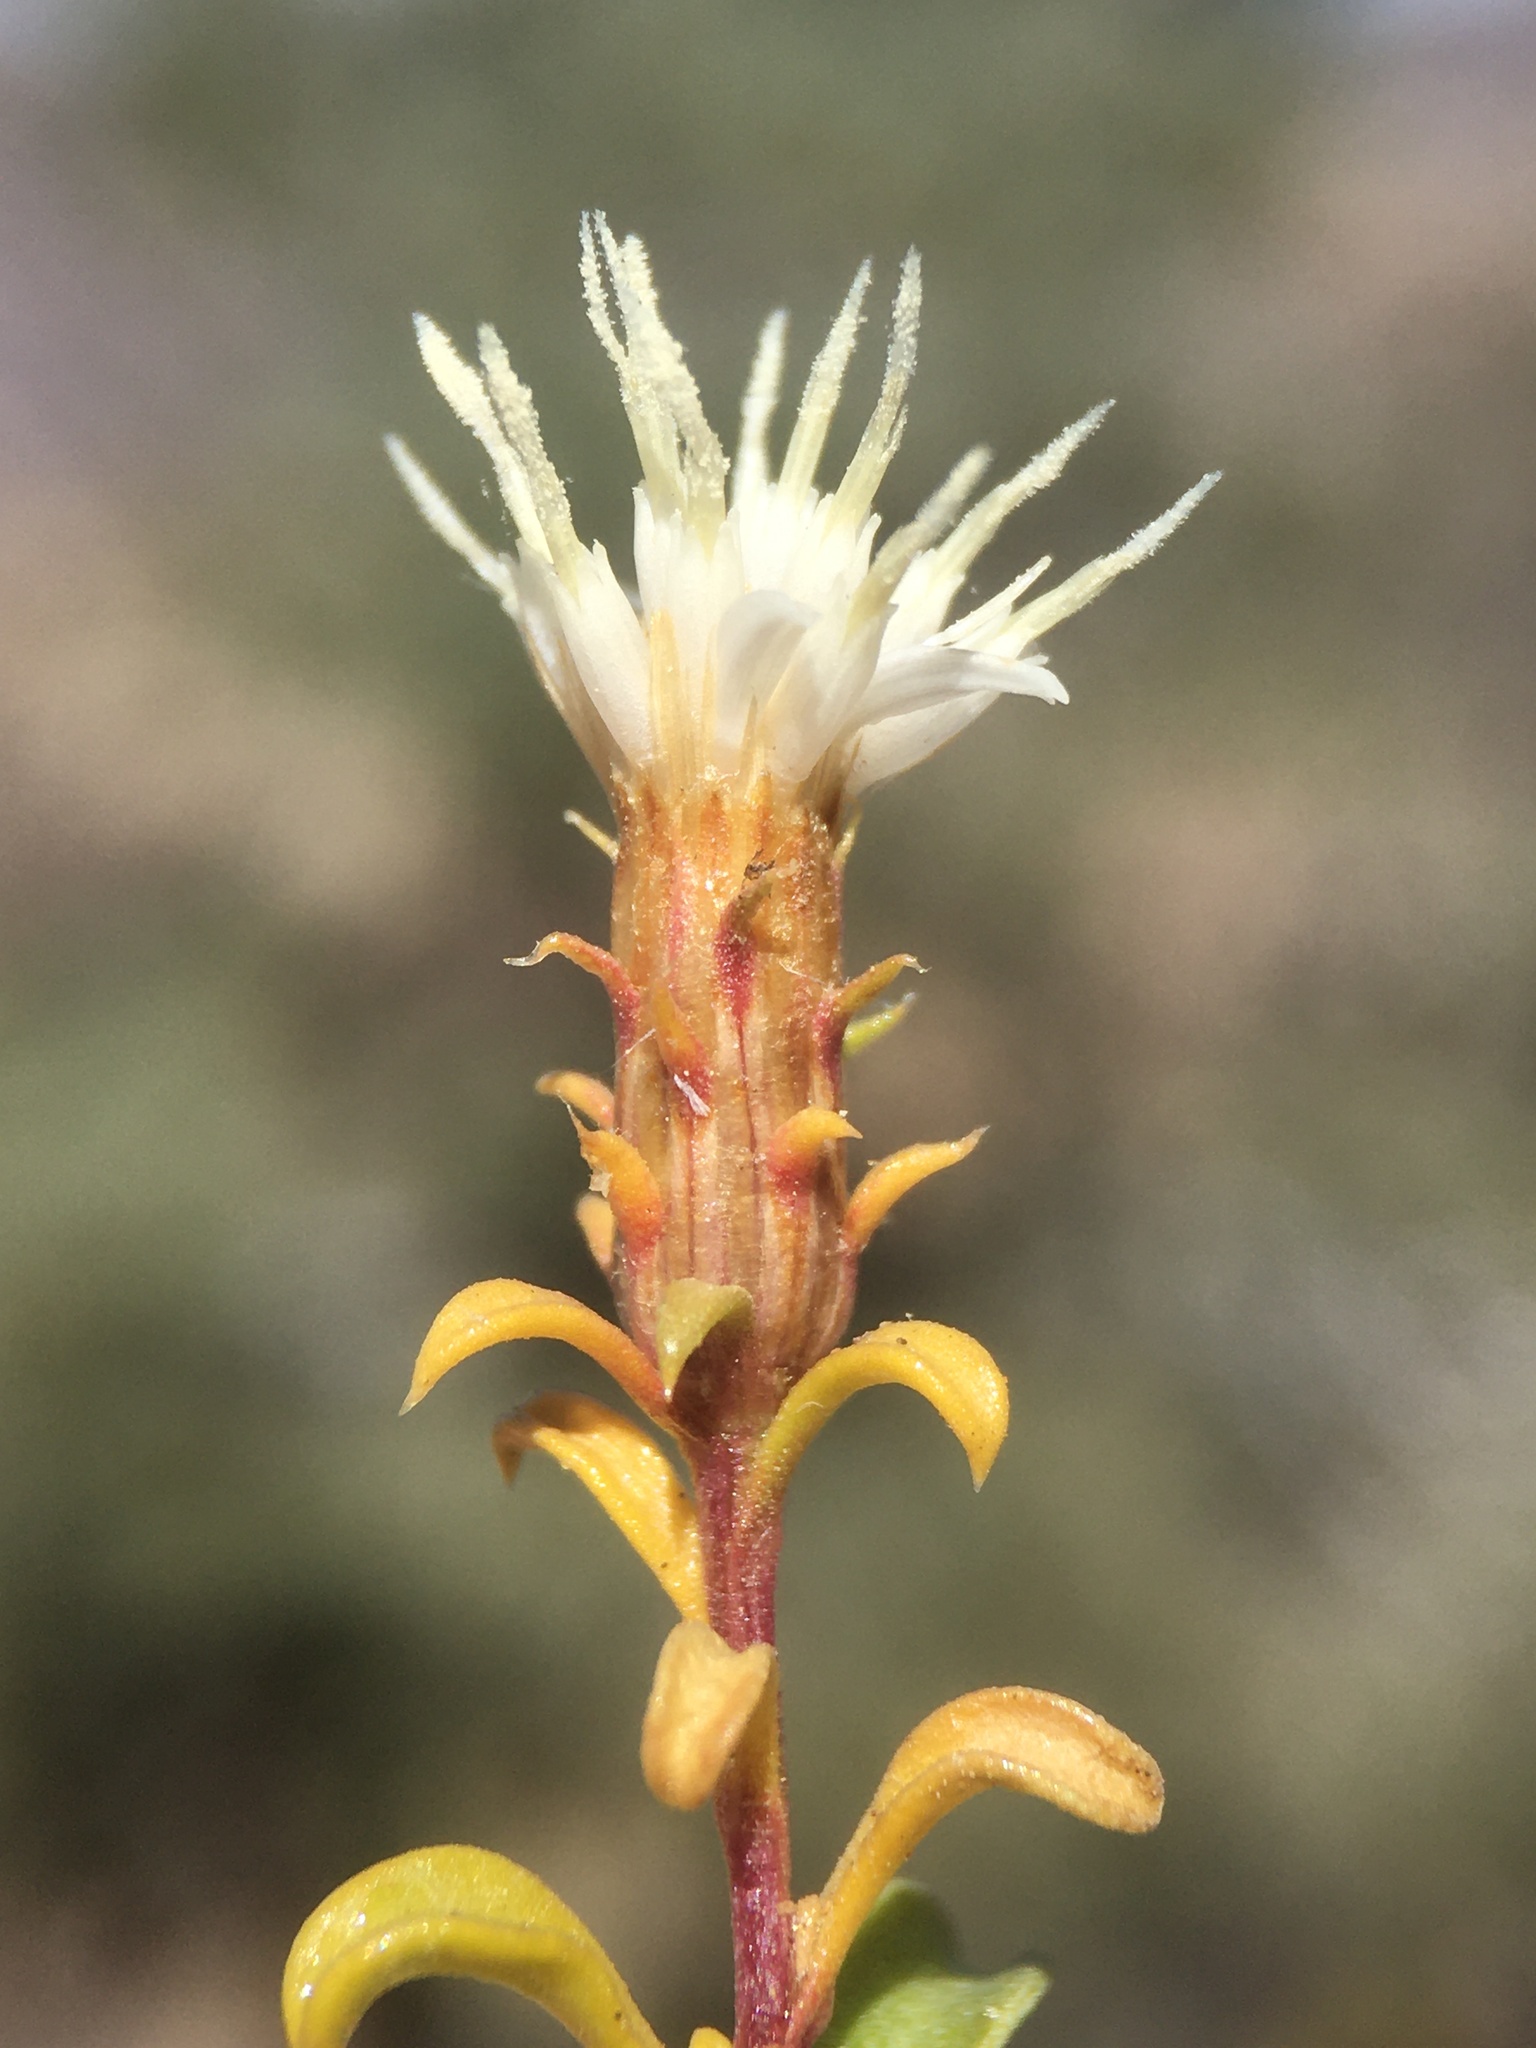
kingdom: Plantae
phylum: Tracheophyta
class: Magnoliopsida
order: Asterales
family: Asteraceae
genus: Ericameria
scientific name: Ericameria gilmanii
